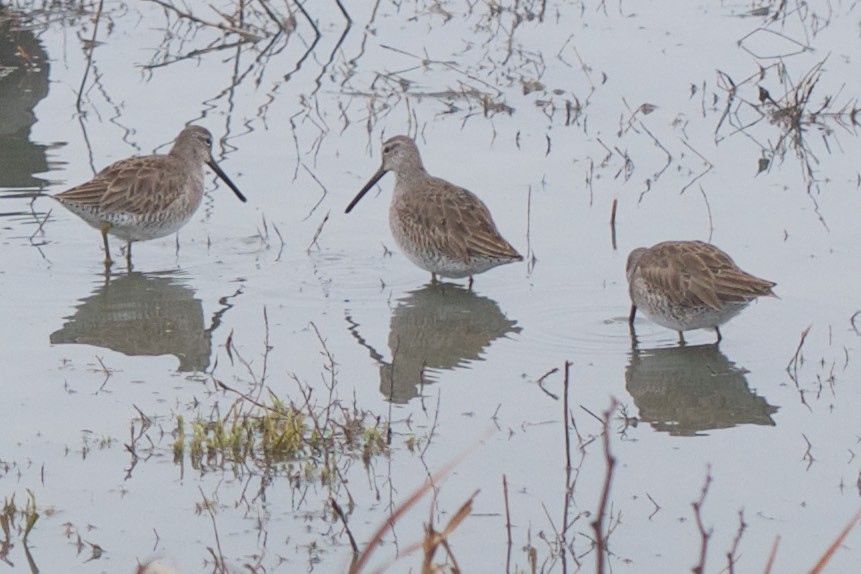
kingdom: Animalia
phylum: Chordata
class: Aves
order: Charadriiformes
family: Scolopacidae
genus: Limnodromus
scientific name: Limnodromus scolopaceus
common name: Long-billed dowitcher
